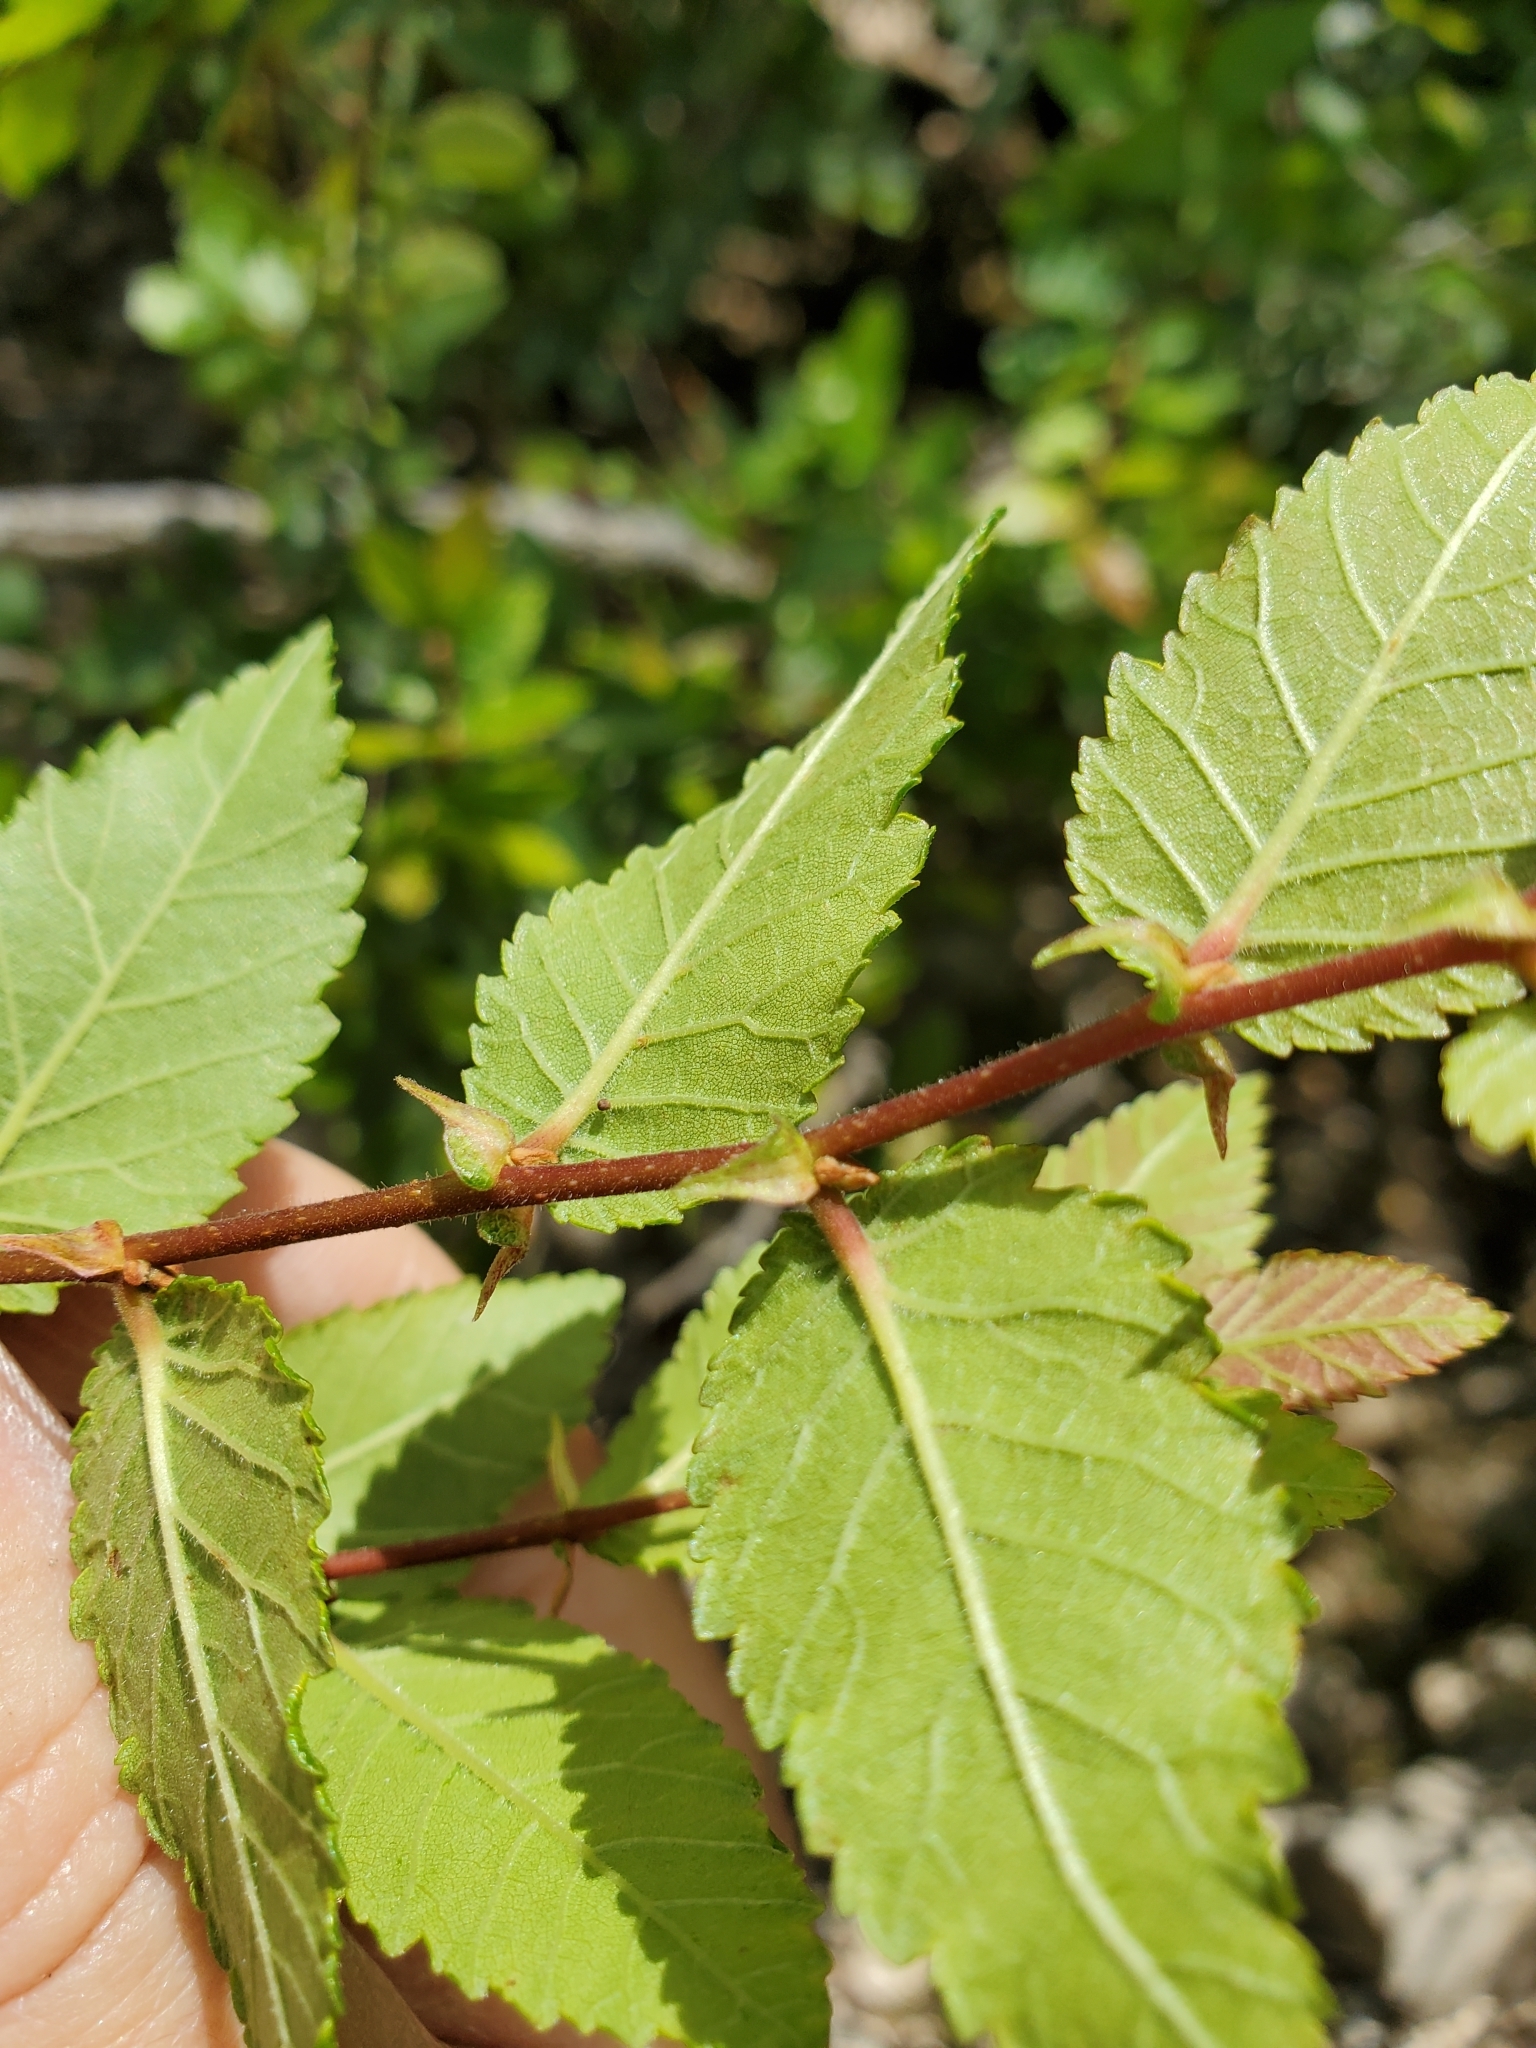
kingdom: Plantae
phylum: Tracheophyta
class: Magnoliopsida
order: Rosales
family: Ulmaceae
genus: Ulmus
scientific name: Ulmus crassifolia
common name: Basket elm
